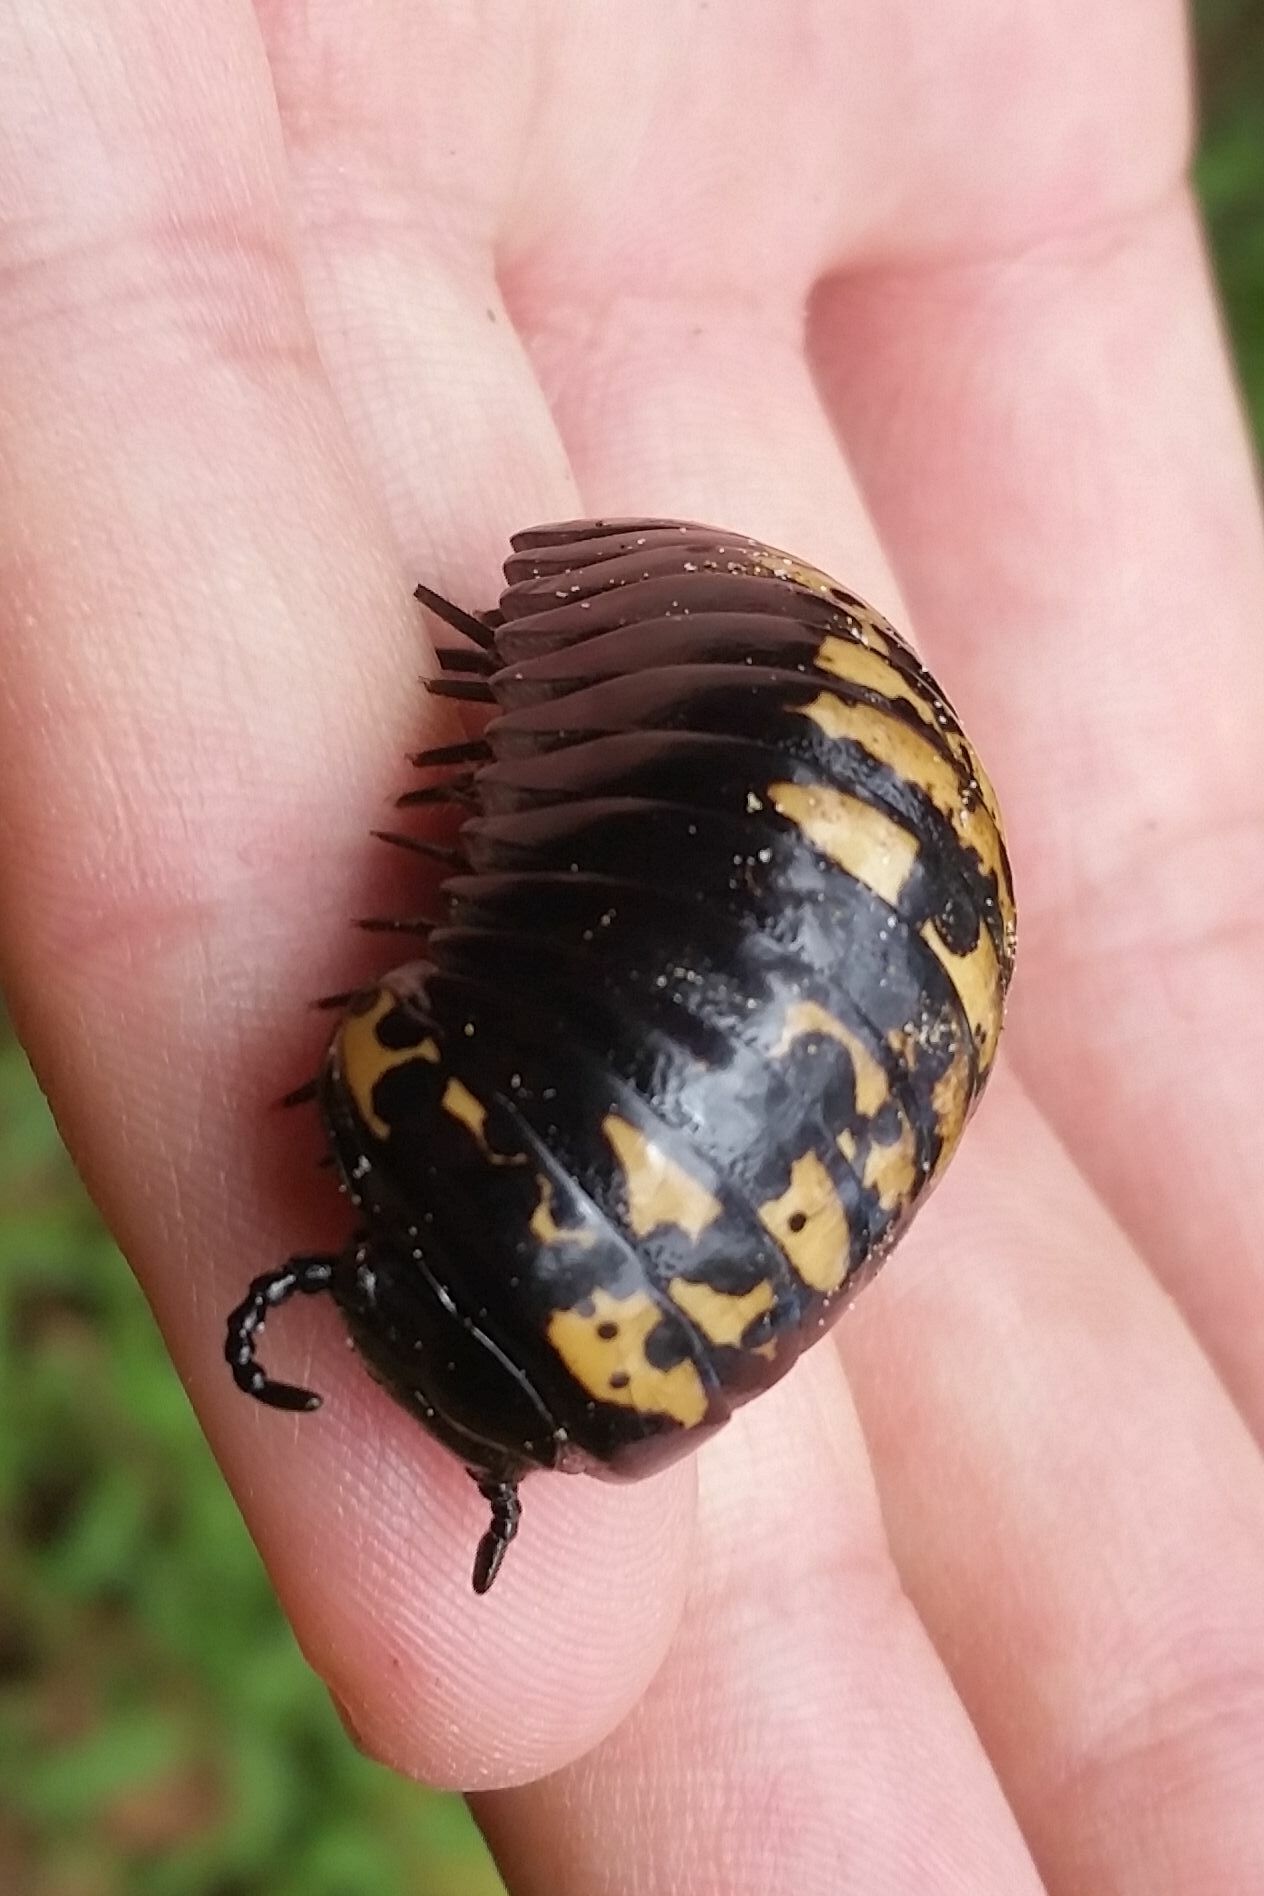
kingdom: Animalia
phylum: Arthropoda
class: Diplopoda
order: Sphaerotheriida
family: Arthrosphaeridae
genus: Arthrosphaera
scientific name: Arthrosphaera versicolor
